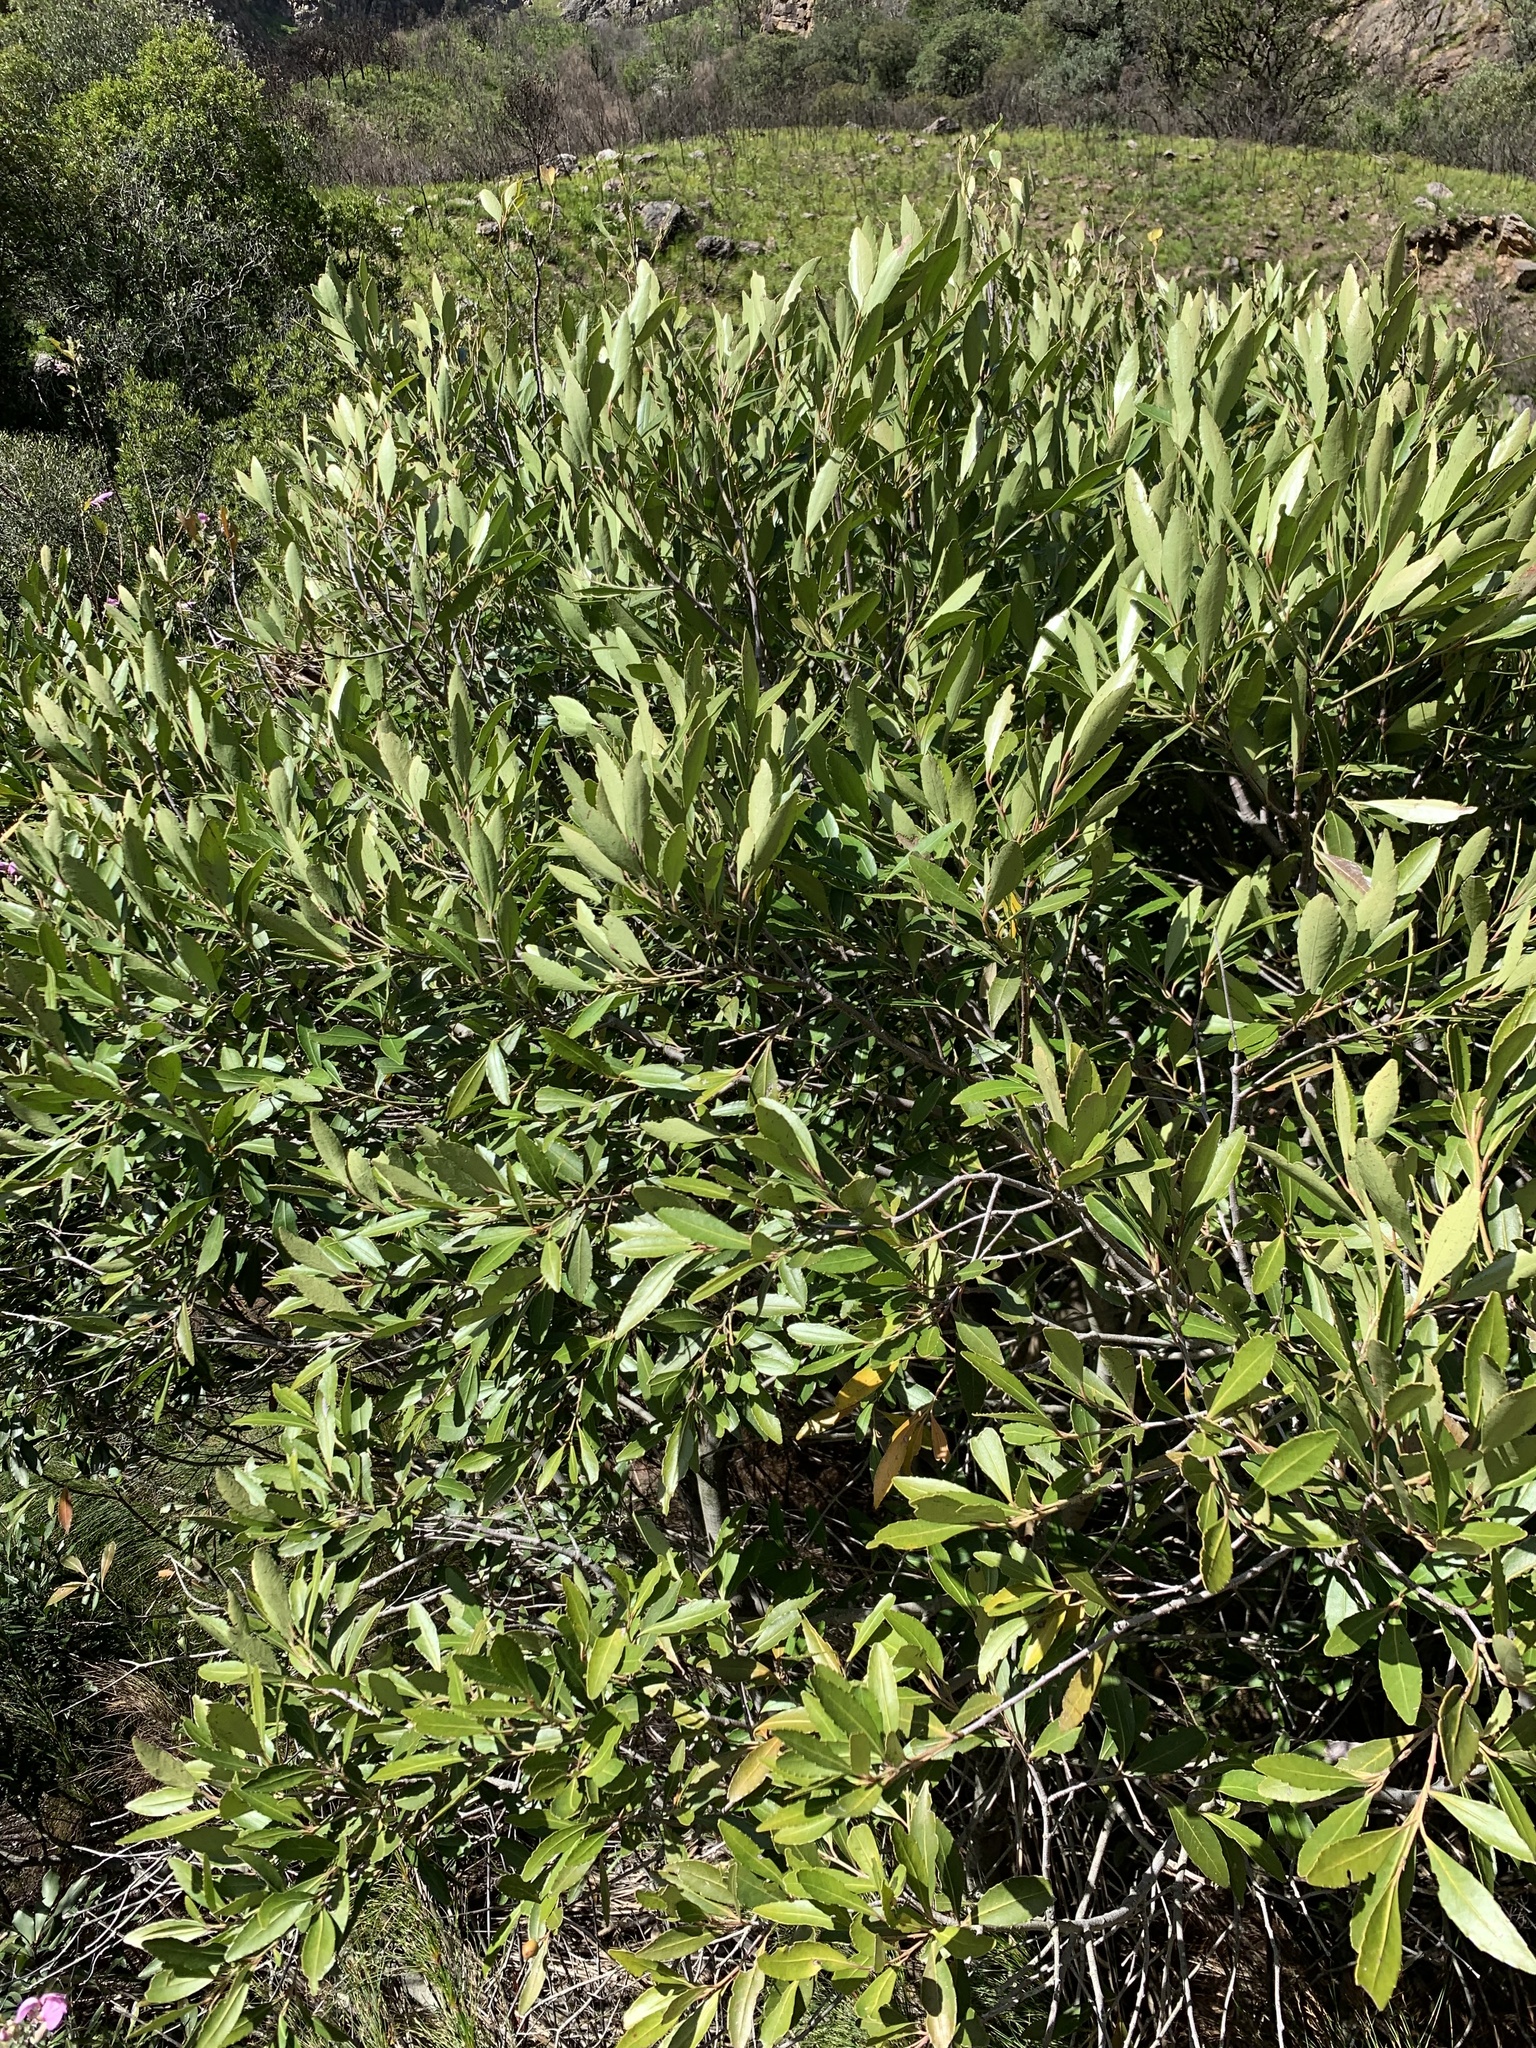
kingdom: Plantae
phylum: Tracheophyta
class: Magnoliopsida
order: Celastrales
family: Celastraceae
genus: Elaeodendron
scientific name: Elaeodendron schinoides
